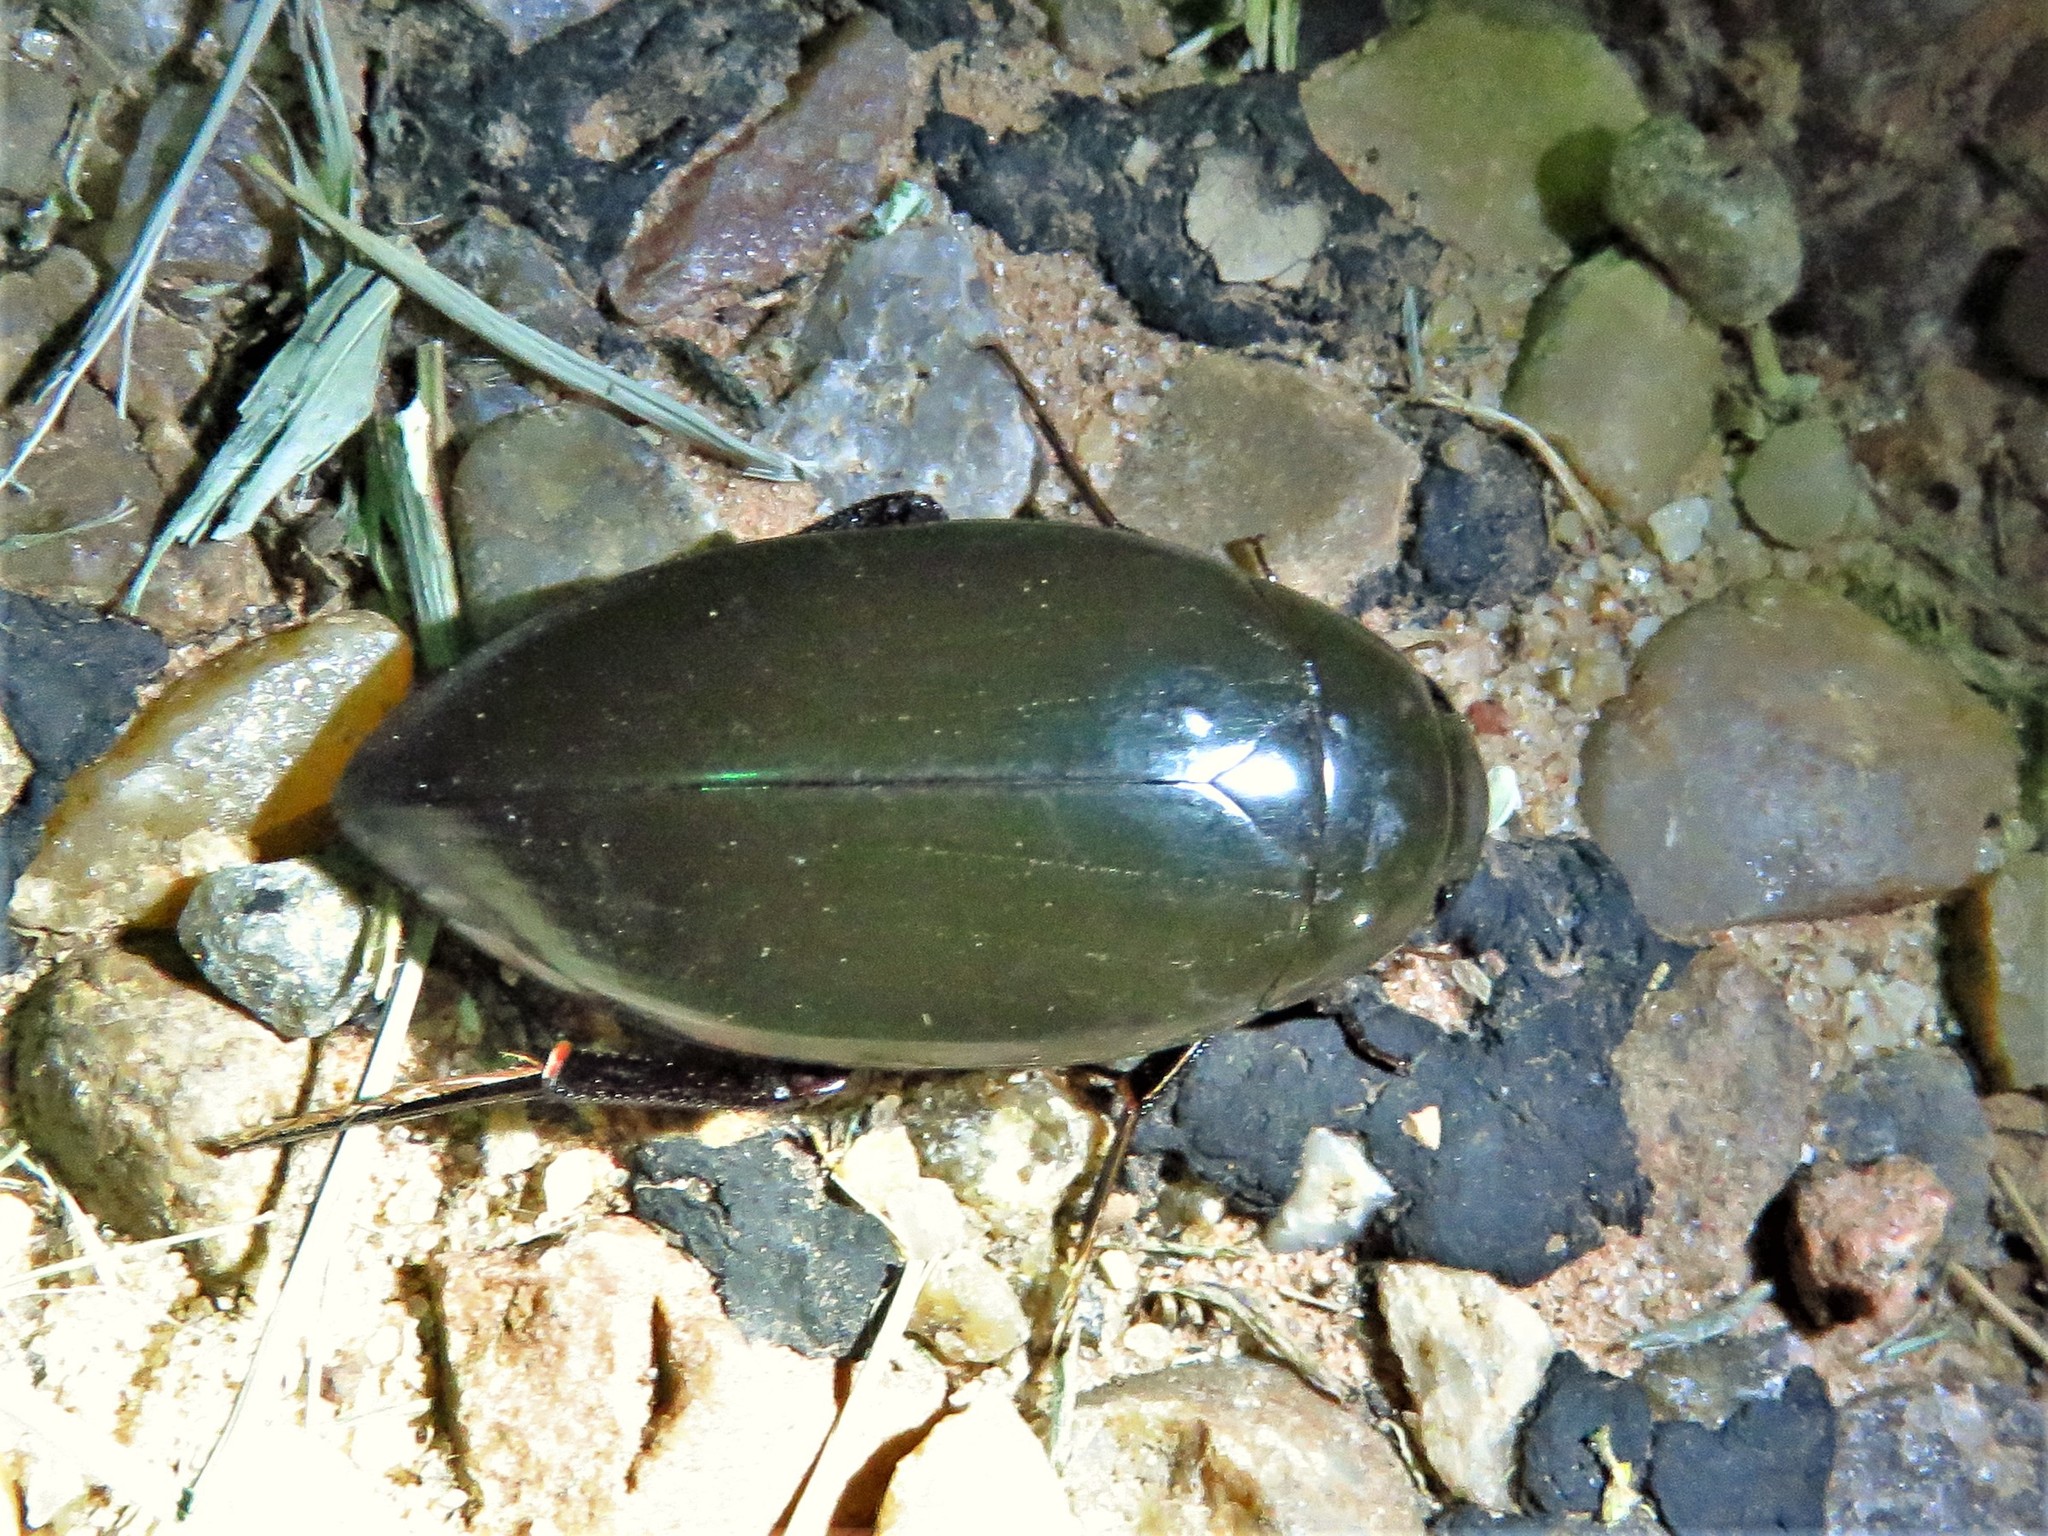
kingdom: Animalia
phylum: Arthropoda
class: Insecta
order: Coleoptera
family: Hydrophilidae
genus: Hydrophilus
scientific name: Hydrophilus triangularis
